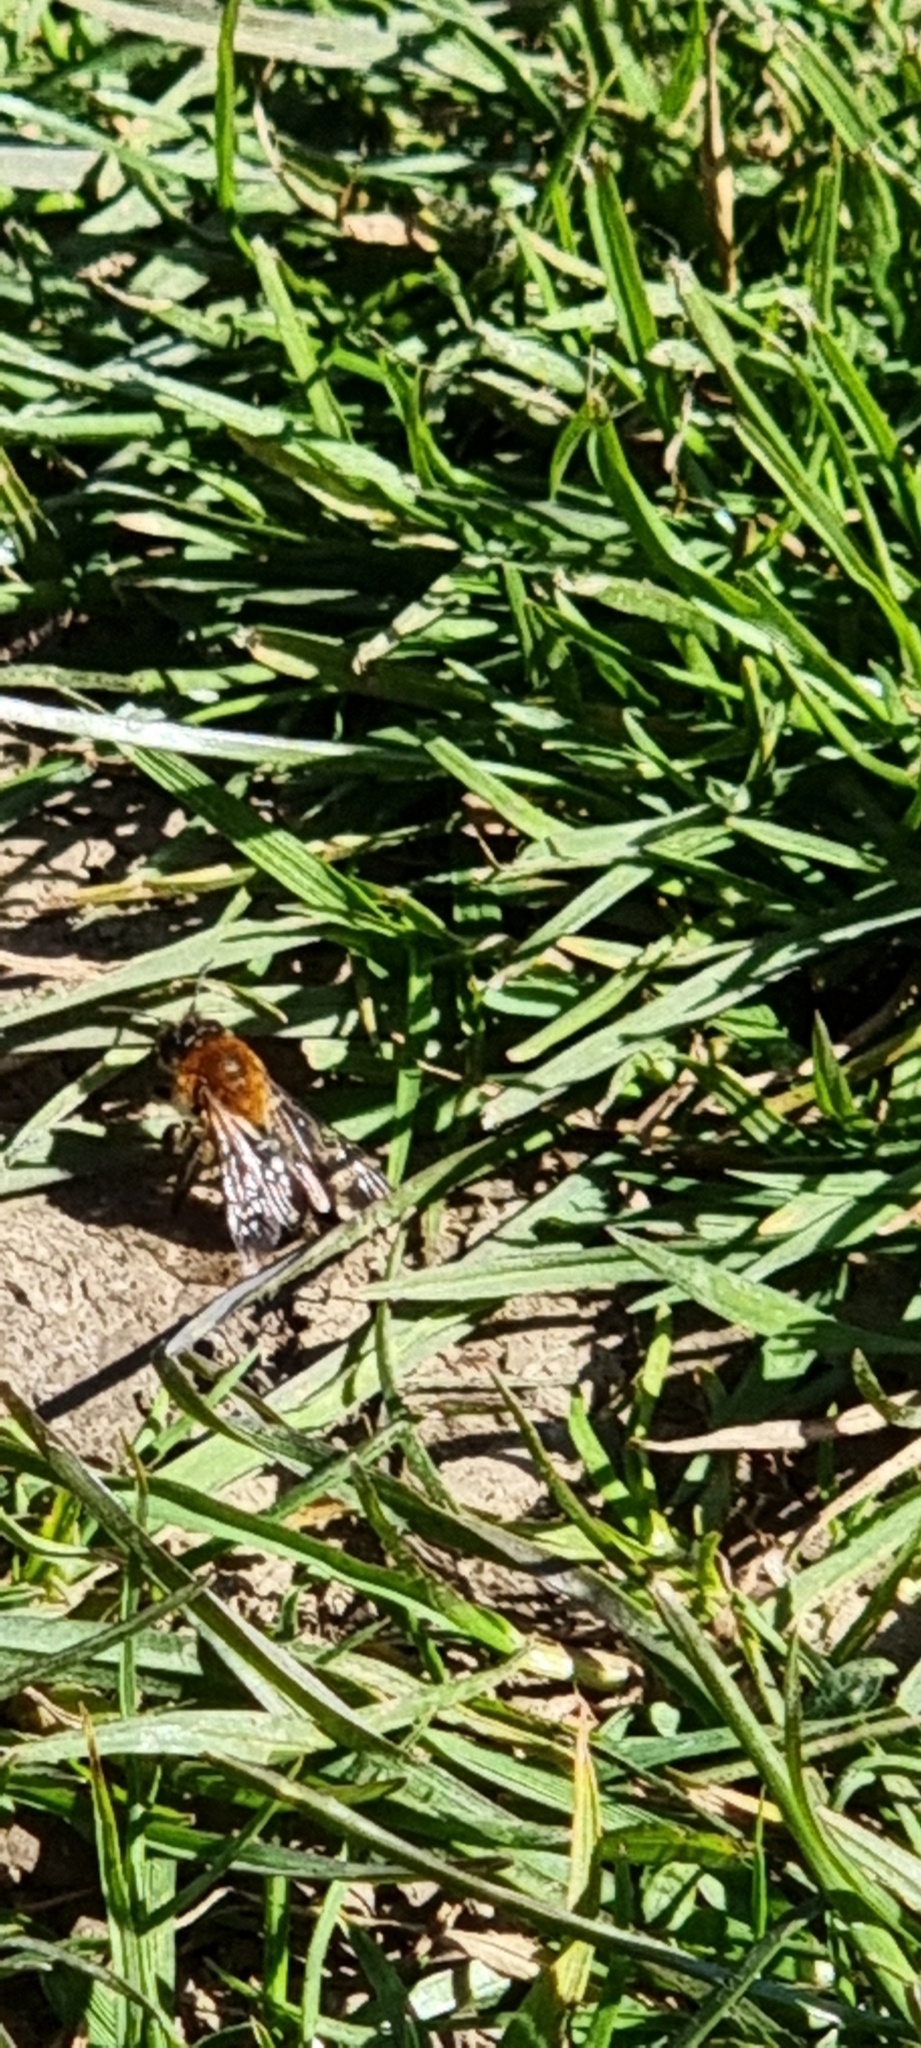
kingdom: Animalia
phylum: Arthropoda
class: Insecta
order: Hymenoptera
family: Andrenidae
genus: Andrena
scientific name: Andrena nitida
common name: Grey-patched mining bee
